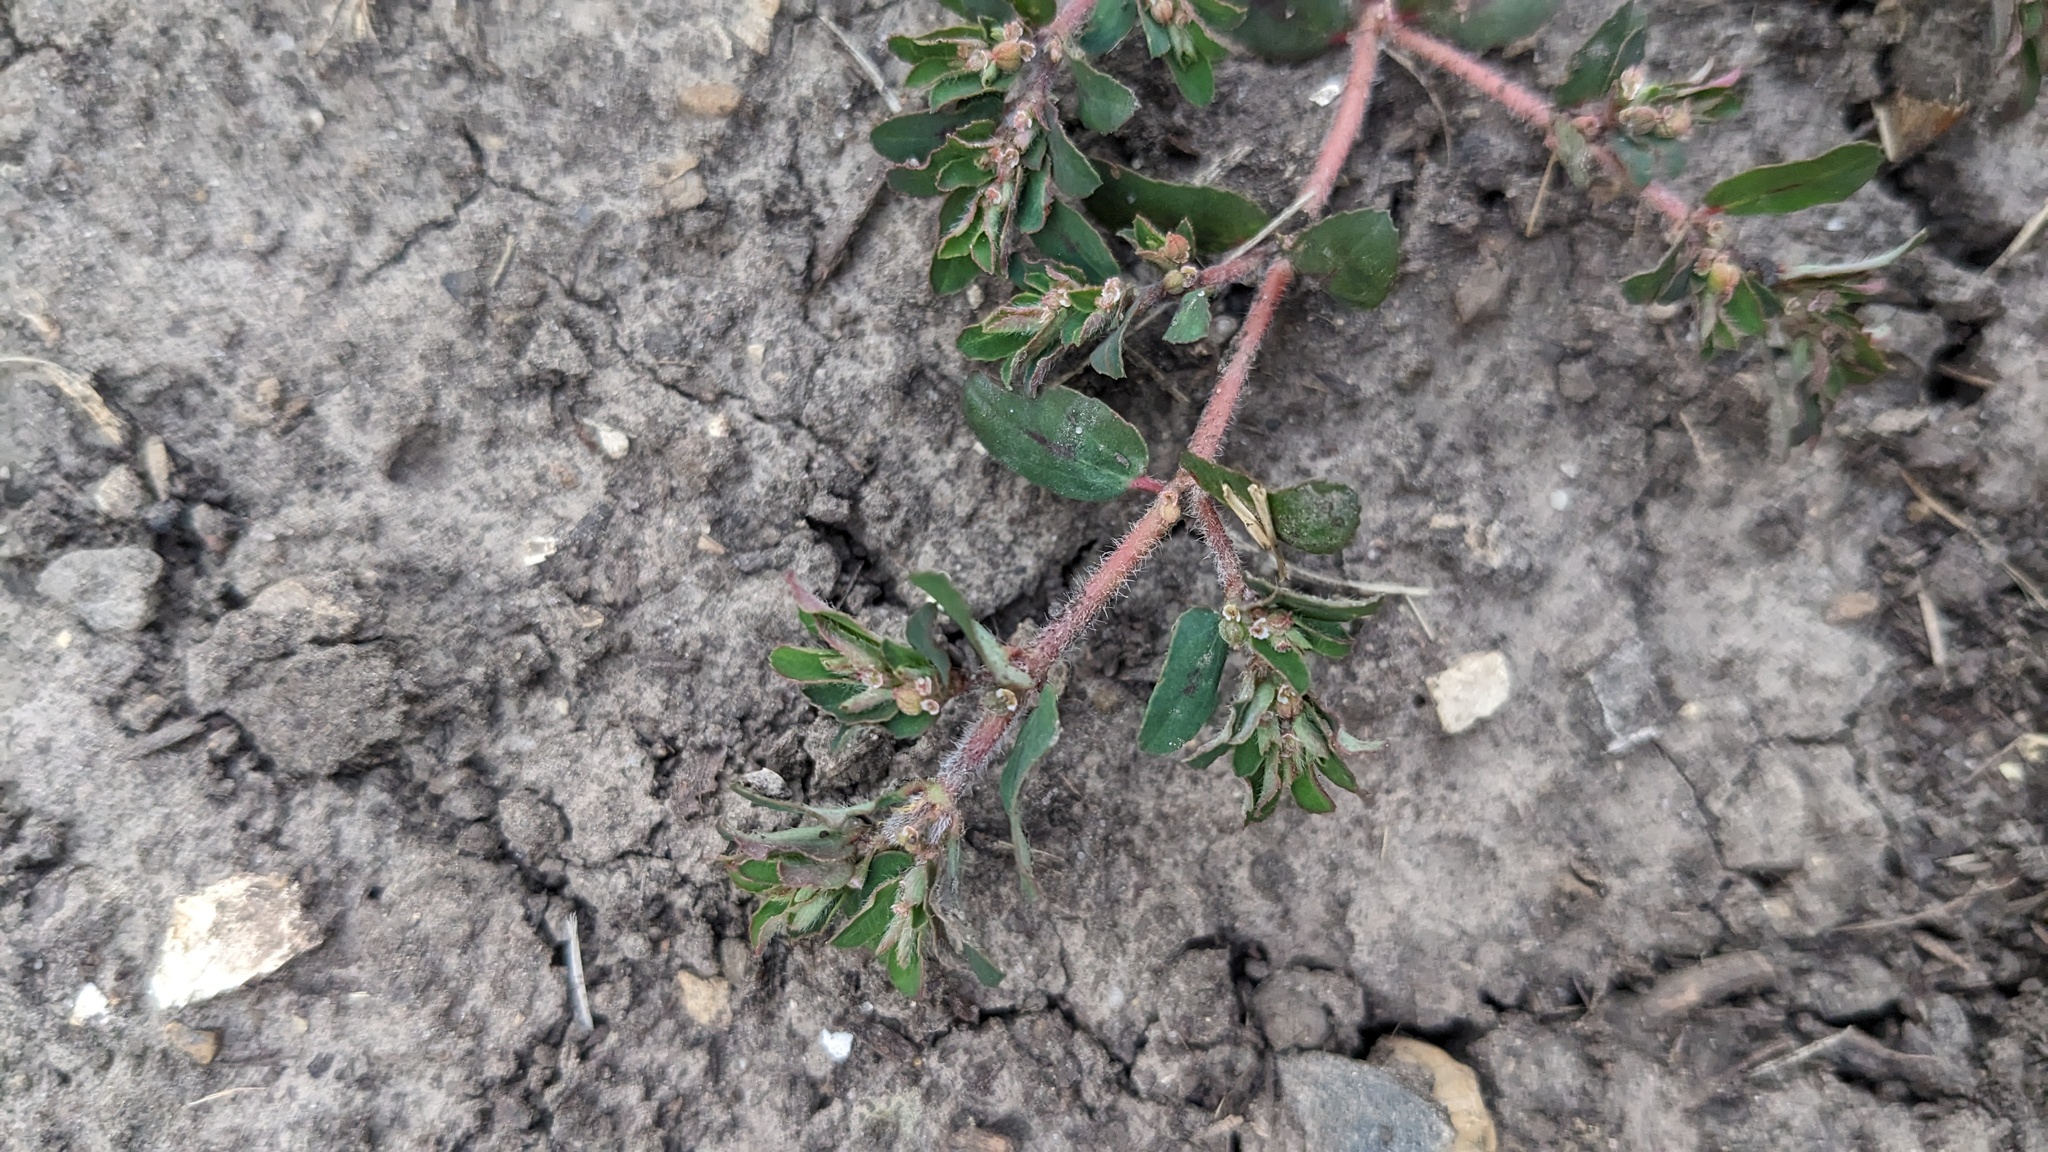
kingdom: Plantae
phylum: Tracheophyta
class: Magnoliopsida
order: Malpighiales
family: Euphorbiaceae
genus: Euphorbia
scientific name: Euphorbia maculata
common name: Spotted spurge
